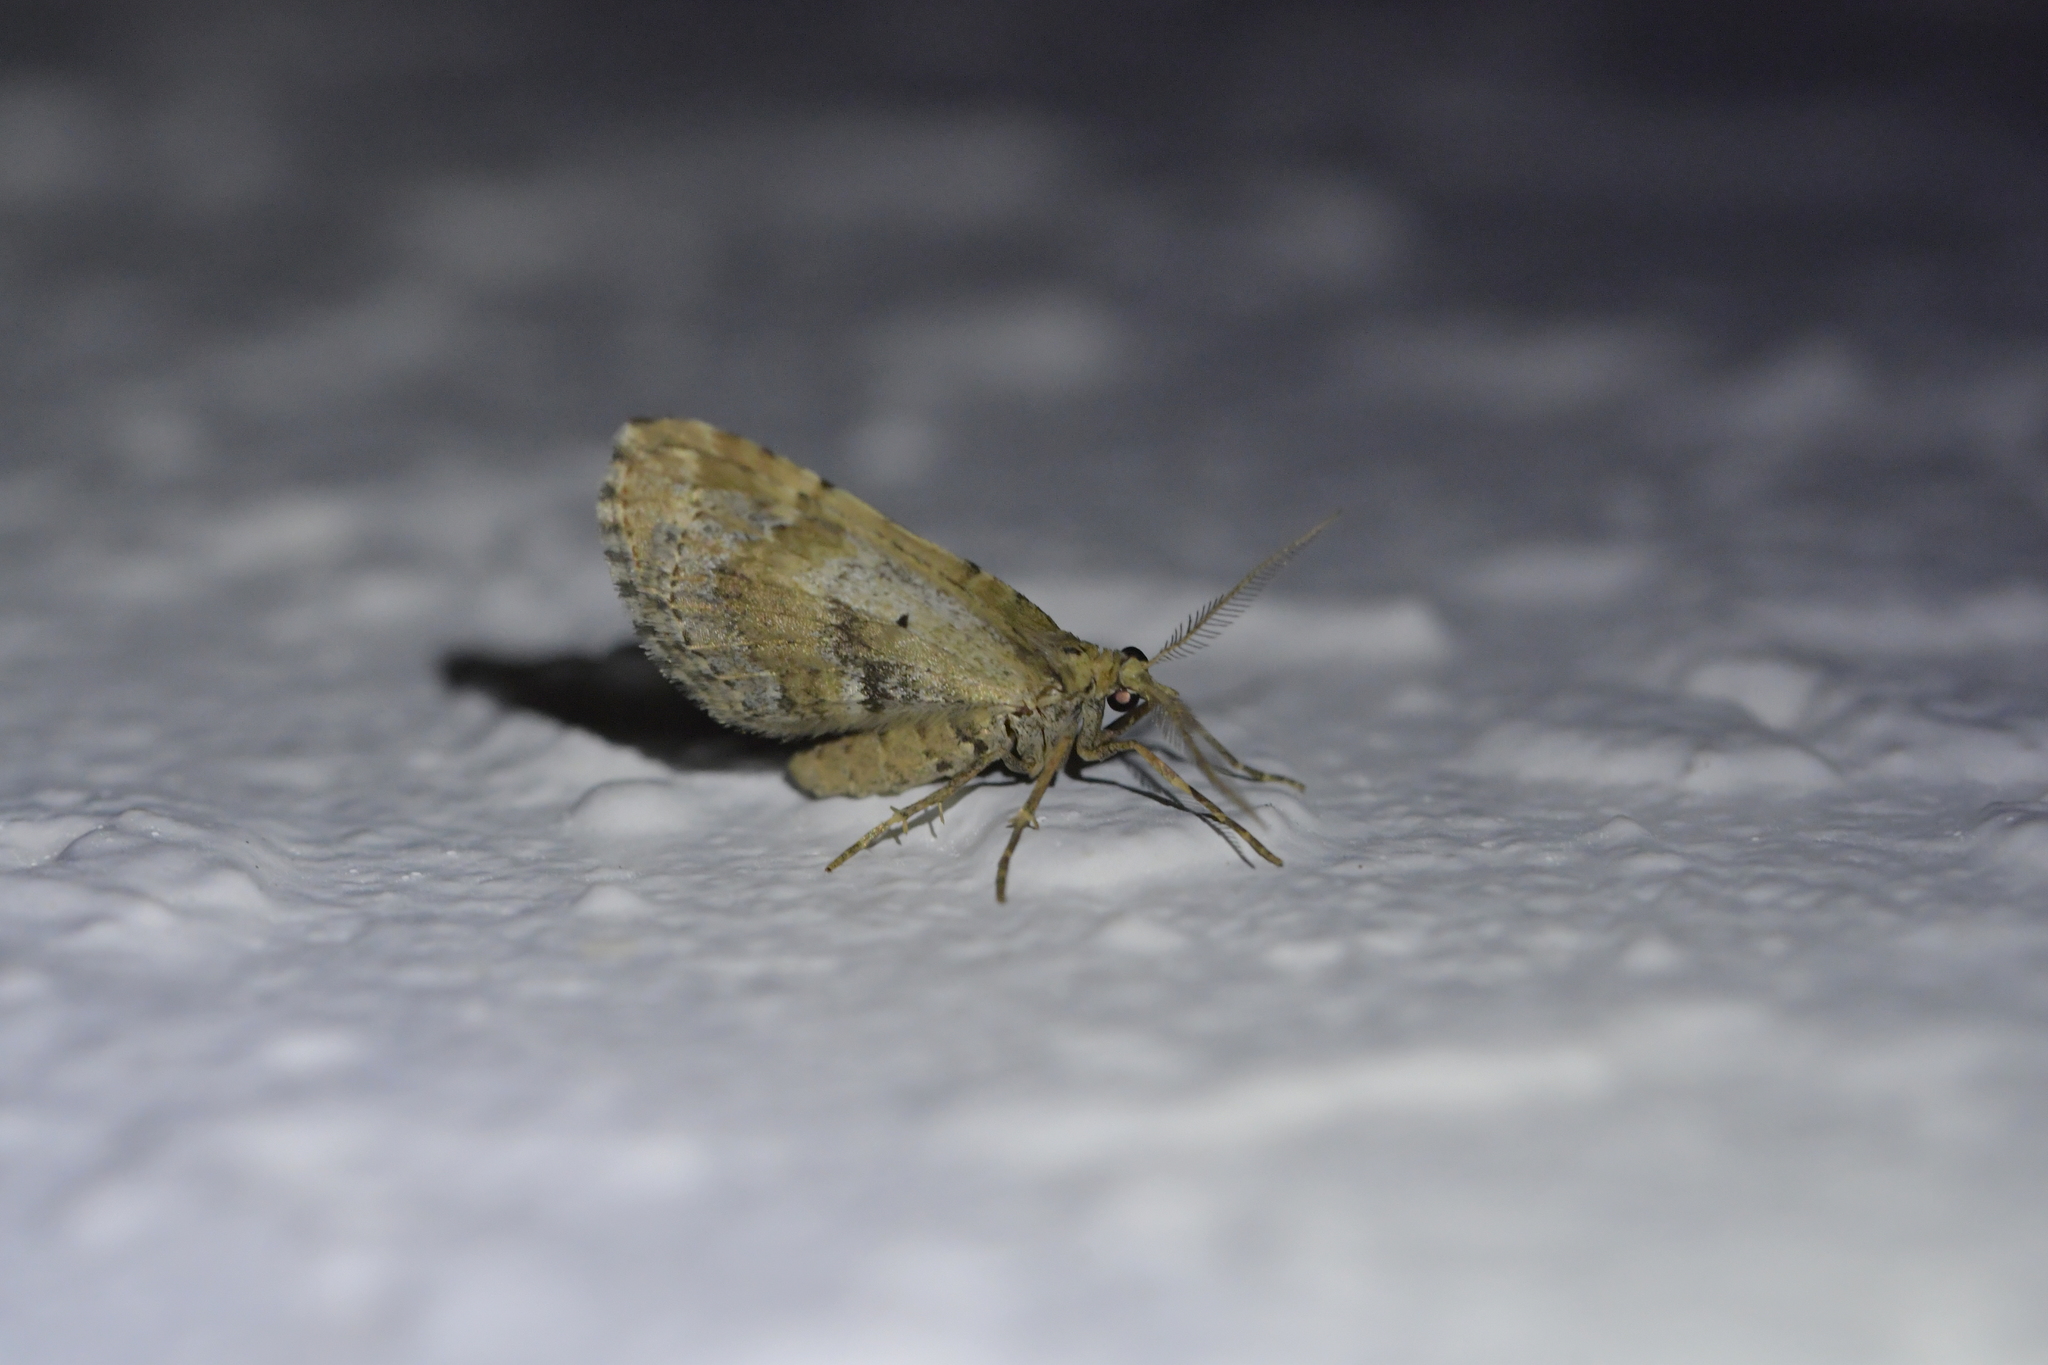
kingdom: Animalia
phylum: Arthropoda
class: Insecta
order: Lepidoptera
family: Geometridae
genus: Asaphodes
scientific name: Asaphodes aegrota
